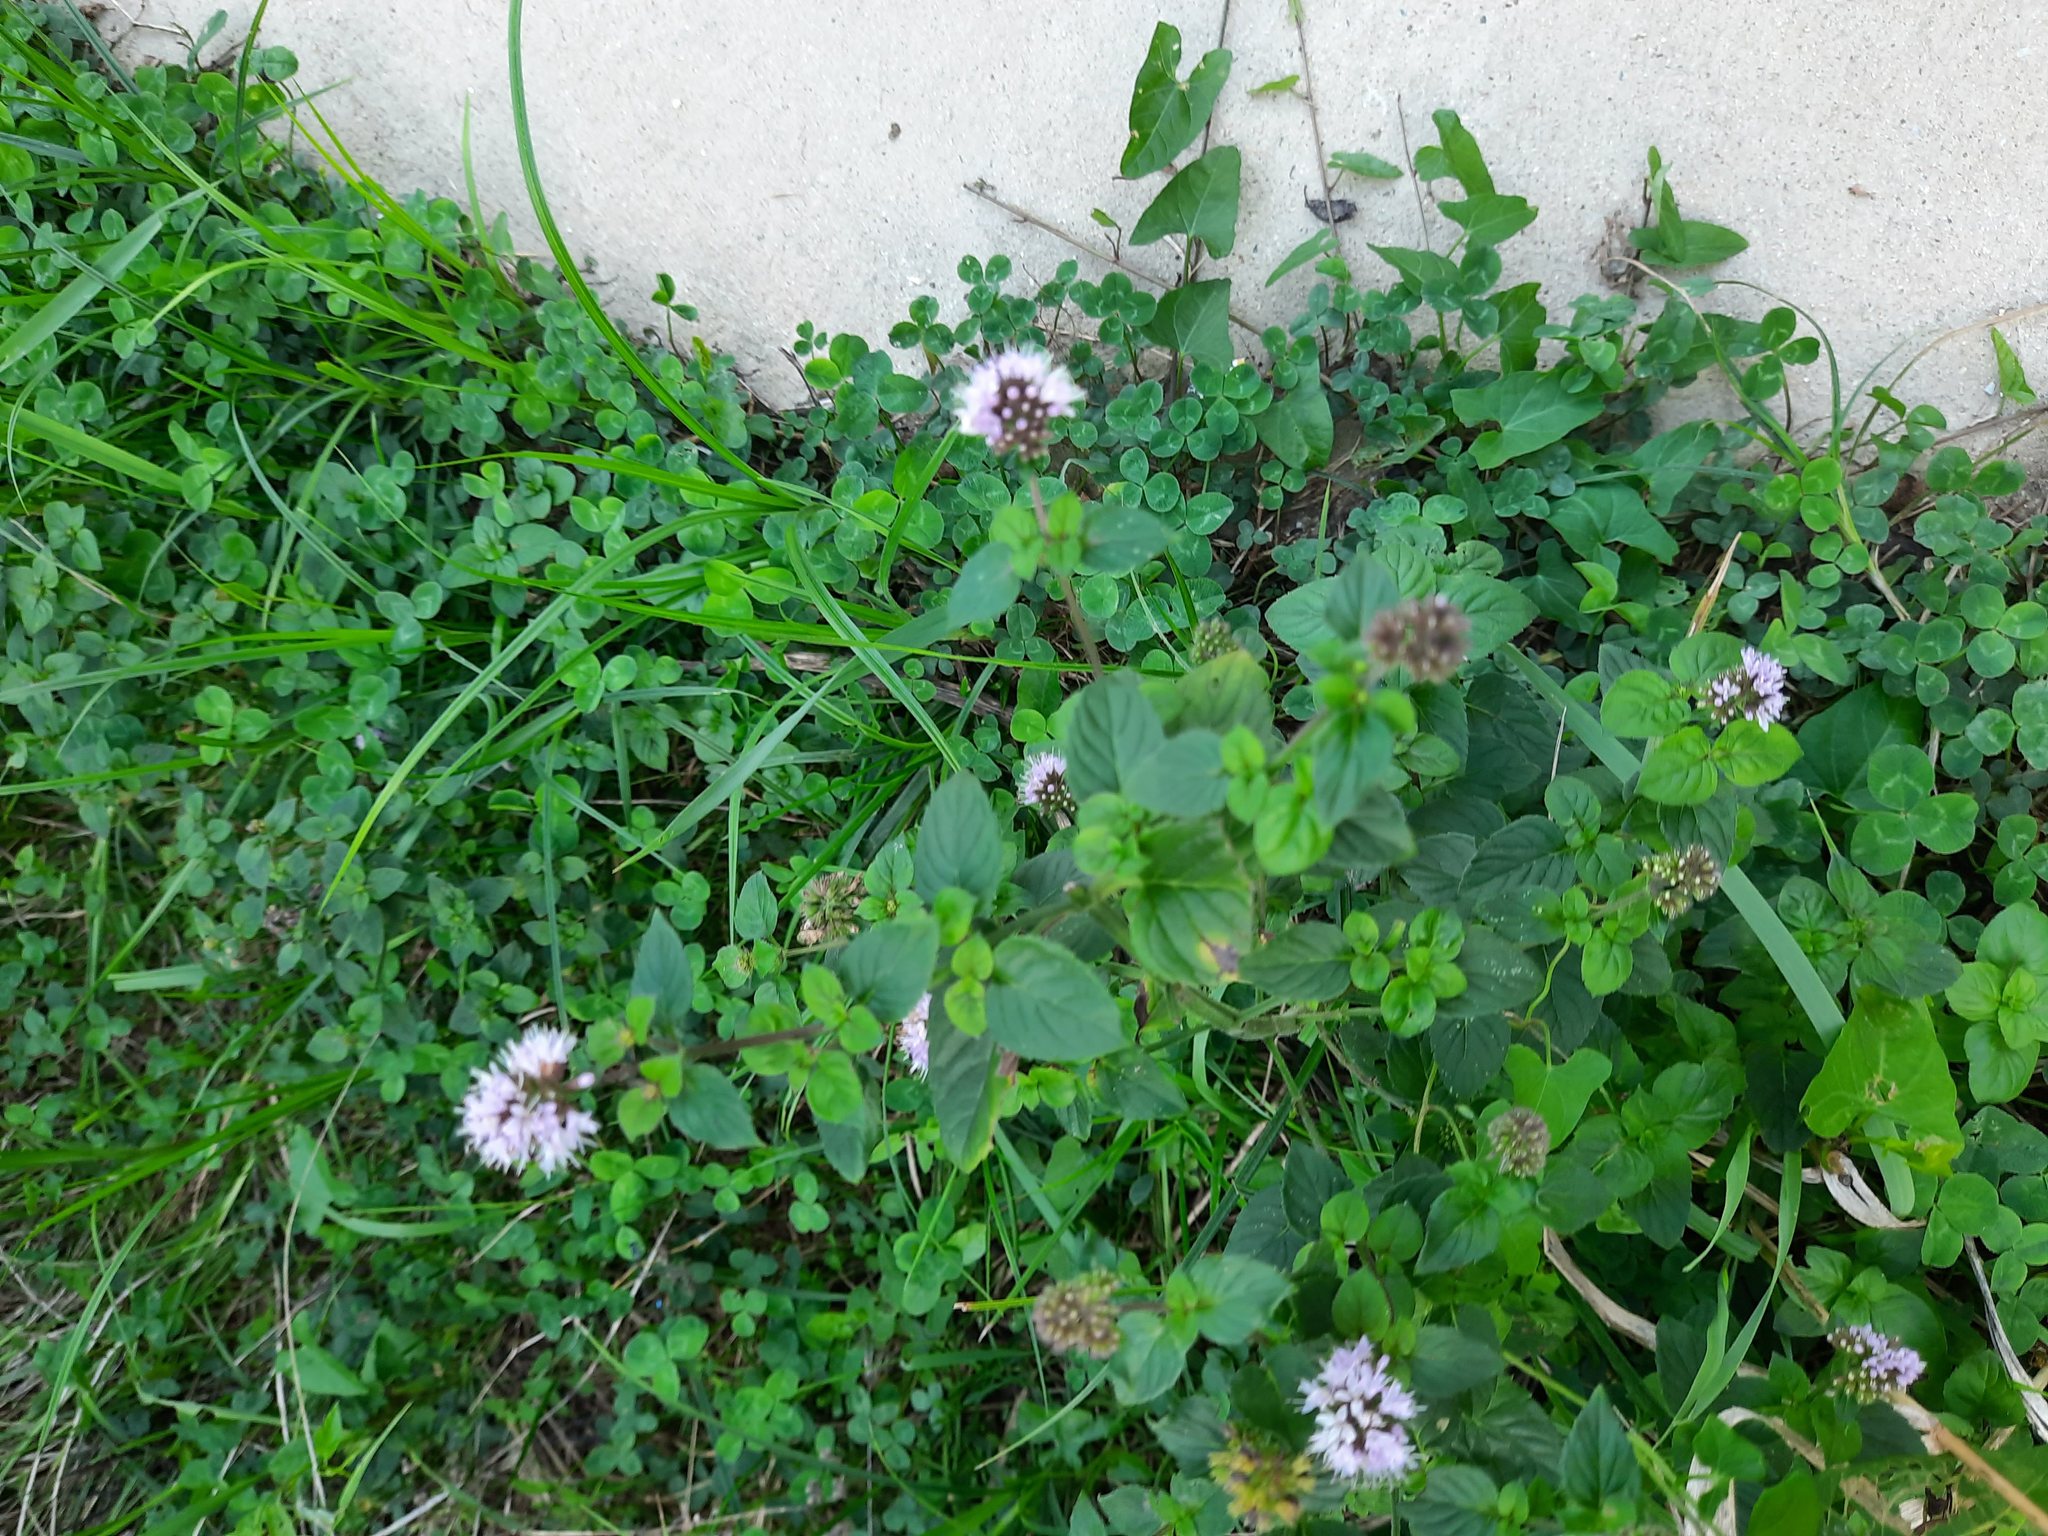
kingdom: Plantae
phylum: Tracheophyta
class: Magnoliopsida
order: Lamiales
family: Lamiaceae
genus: Mentha
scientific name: Mentha aquatica
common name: Water mint
